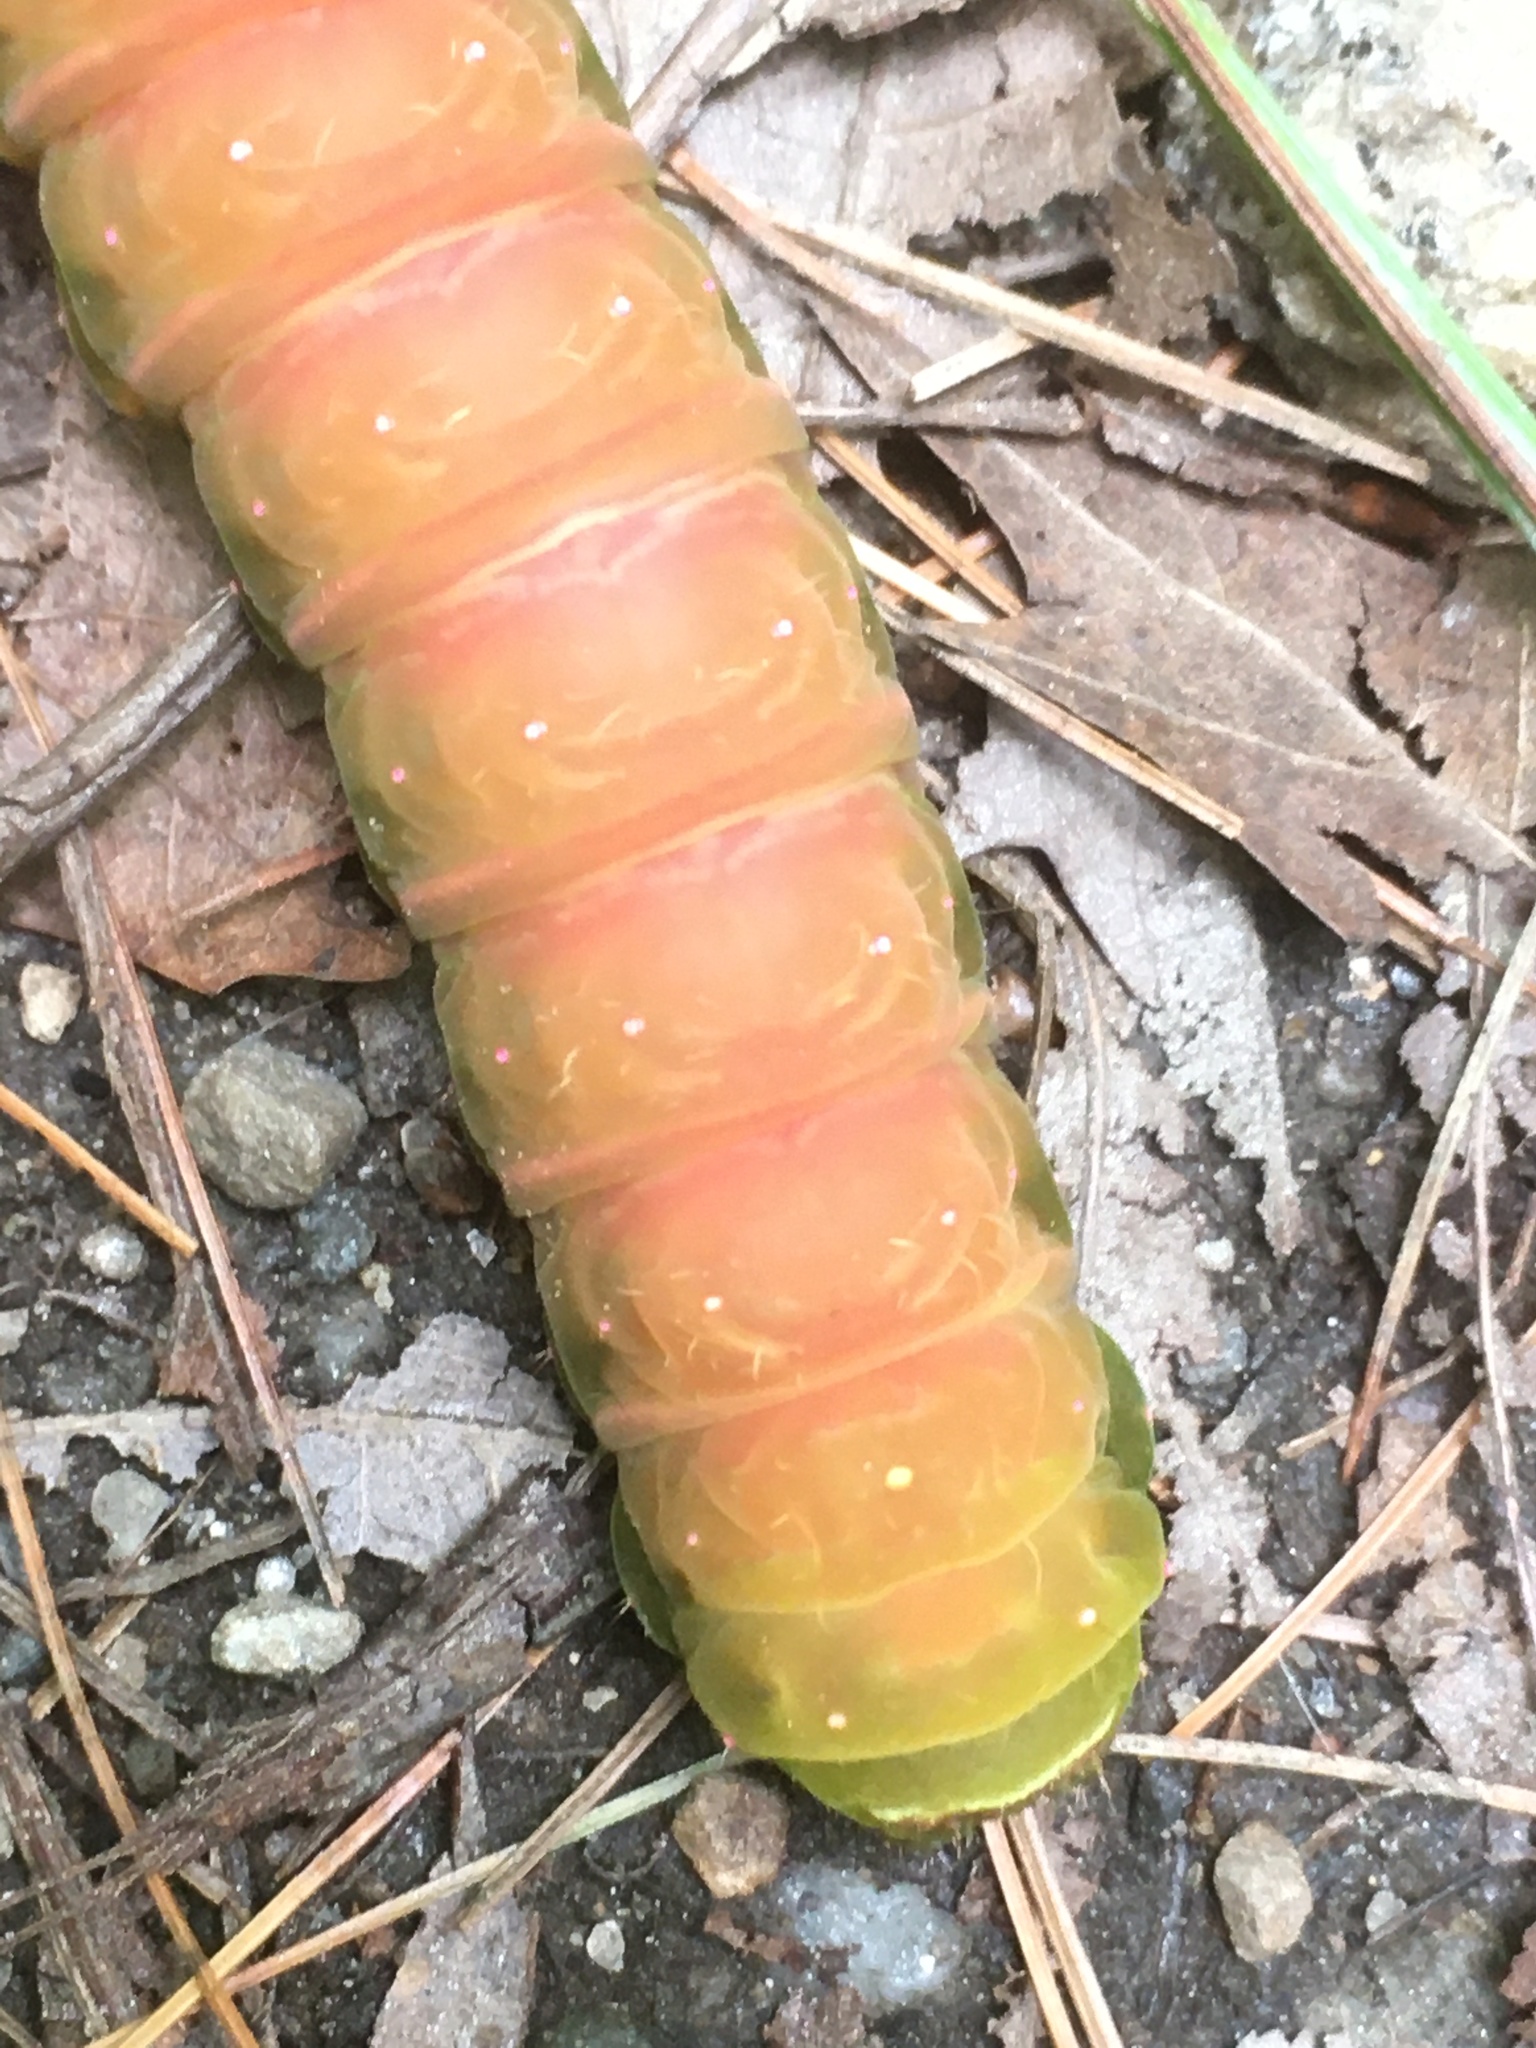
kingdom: Animalia
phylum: Arthropoda
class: Insecta
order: Lepidoptera
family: Saturniidae
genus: Actias
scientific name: Actias luna
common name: Luna moth
